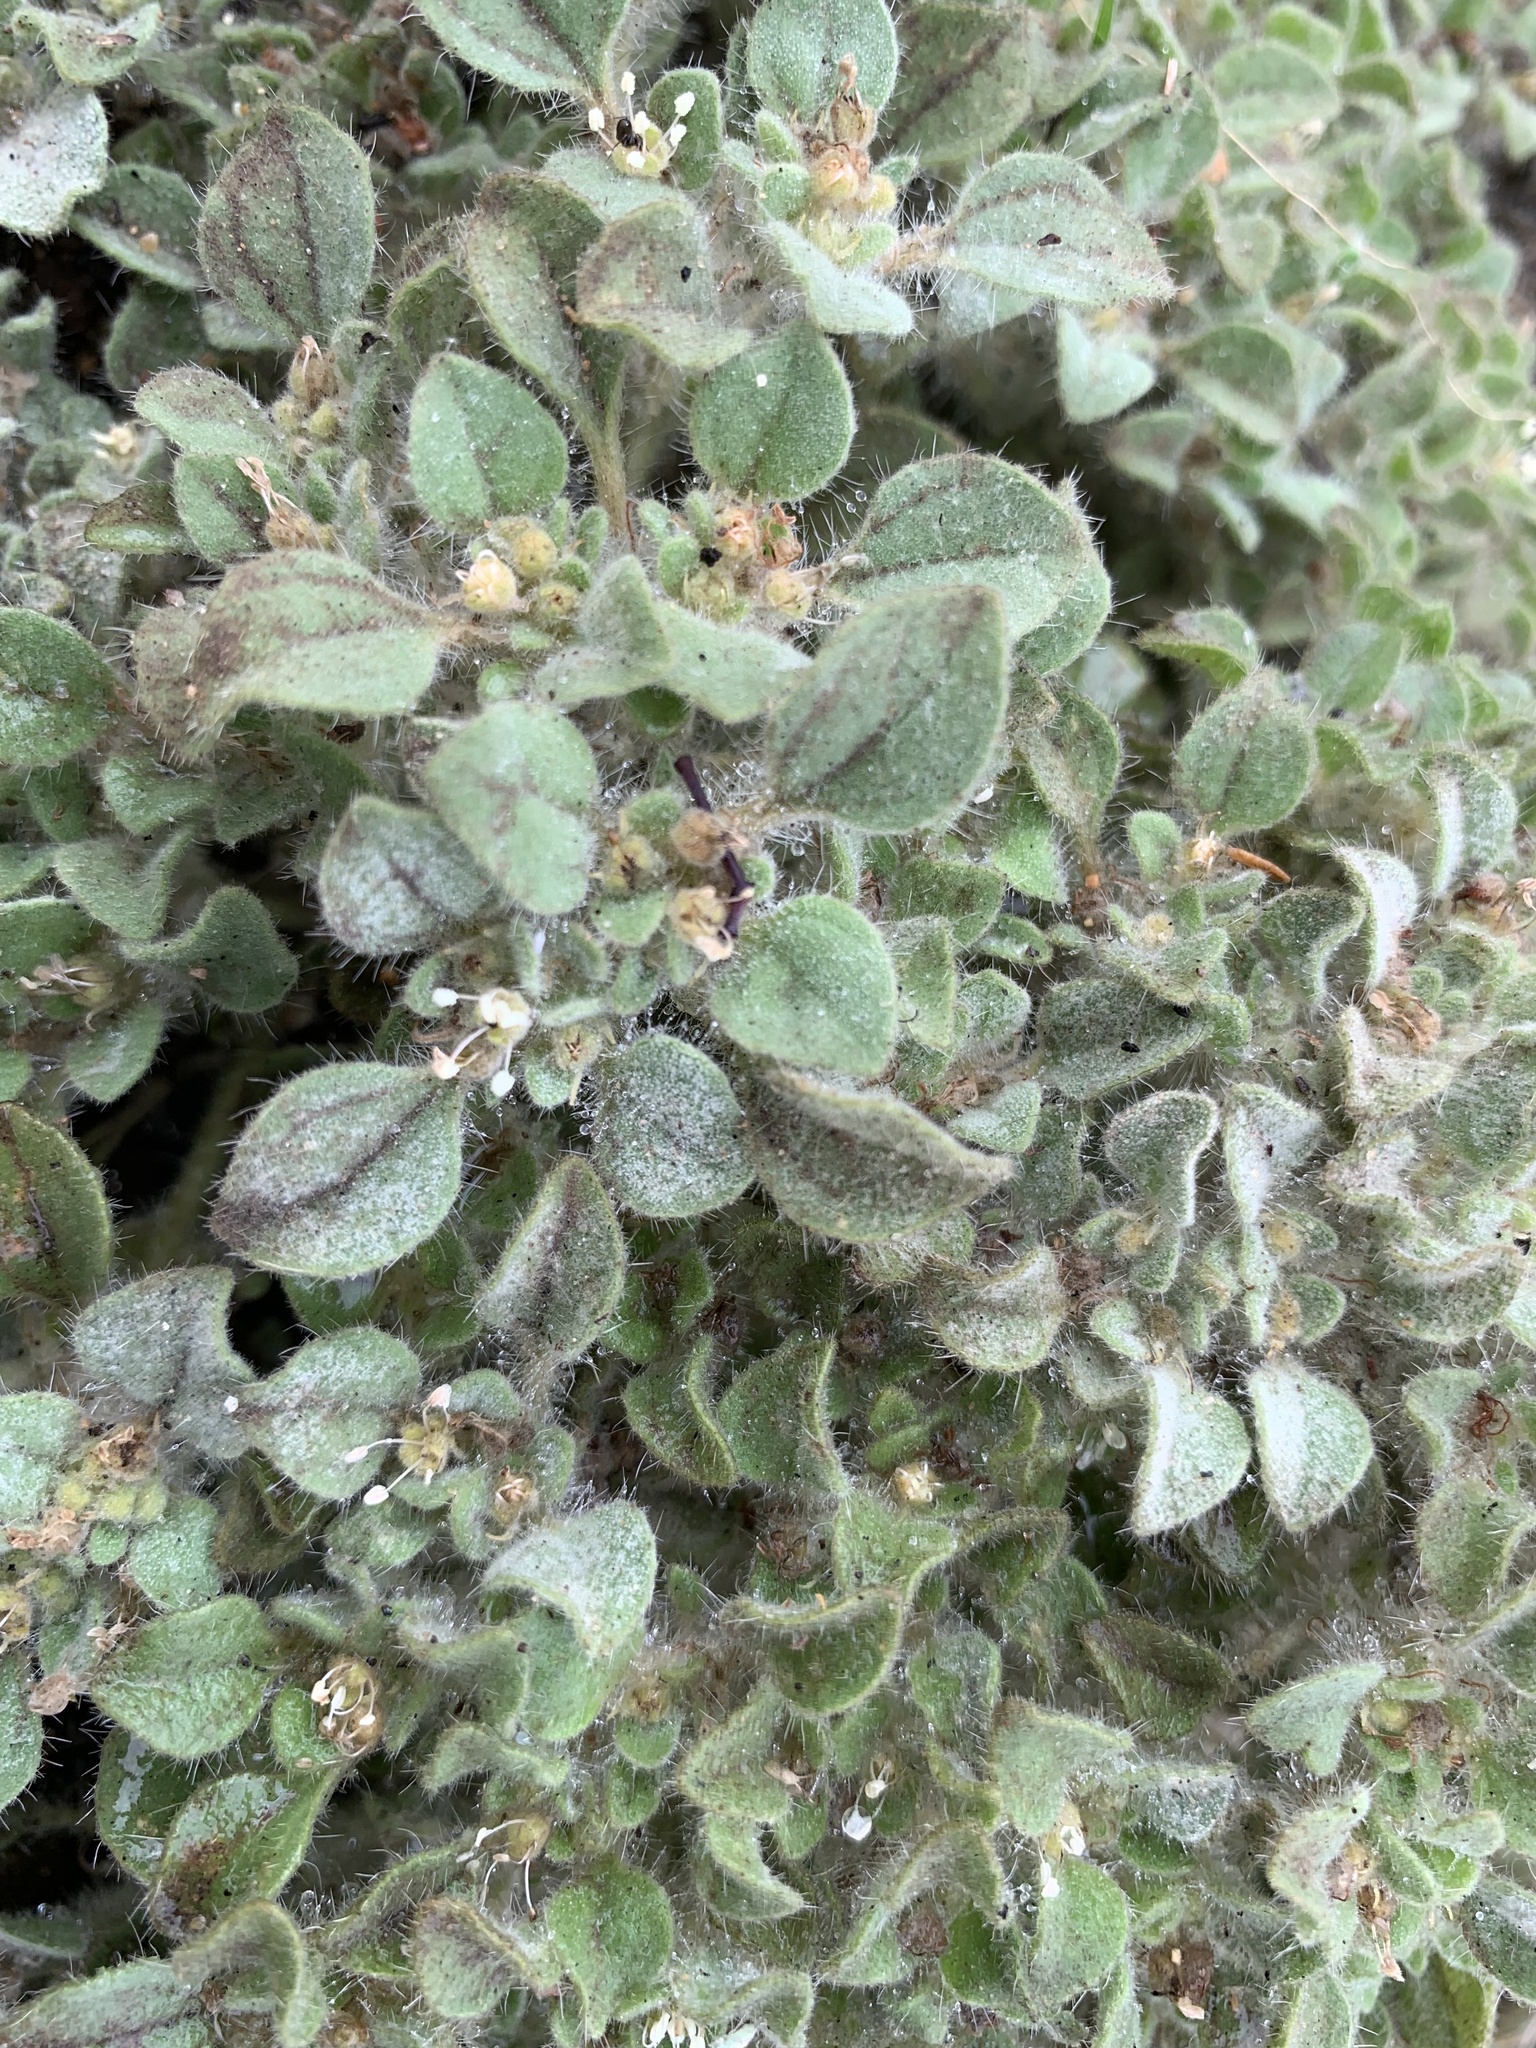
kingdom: Plantae
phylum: Tracheophyta
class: Magnoliopsida
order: Malpighiales
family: Euphorbiaceae
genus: Croton
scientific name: Croton setiger
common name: Dove weed
